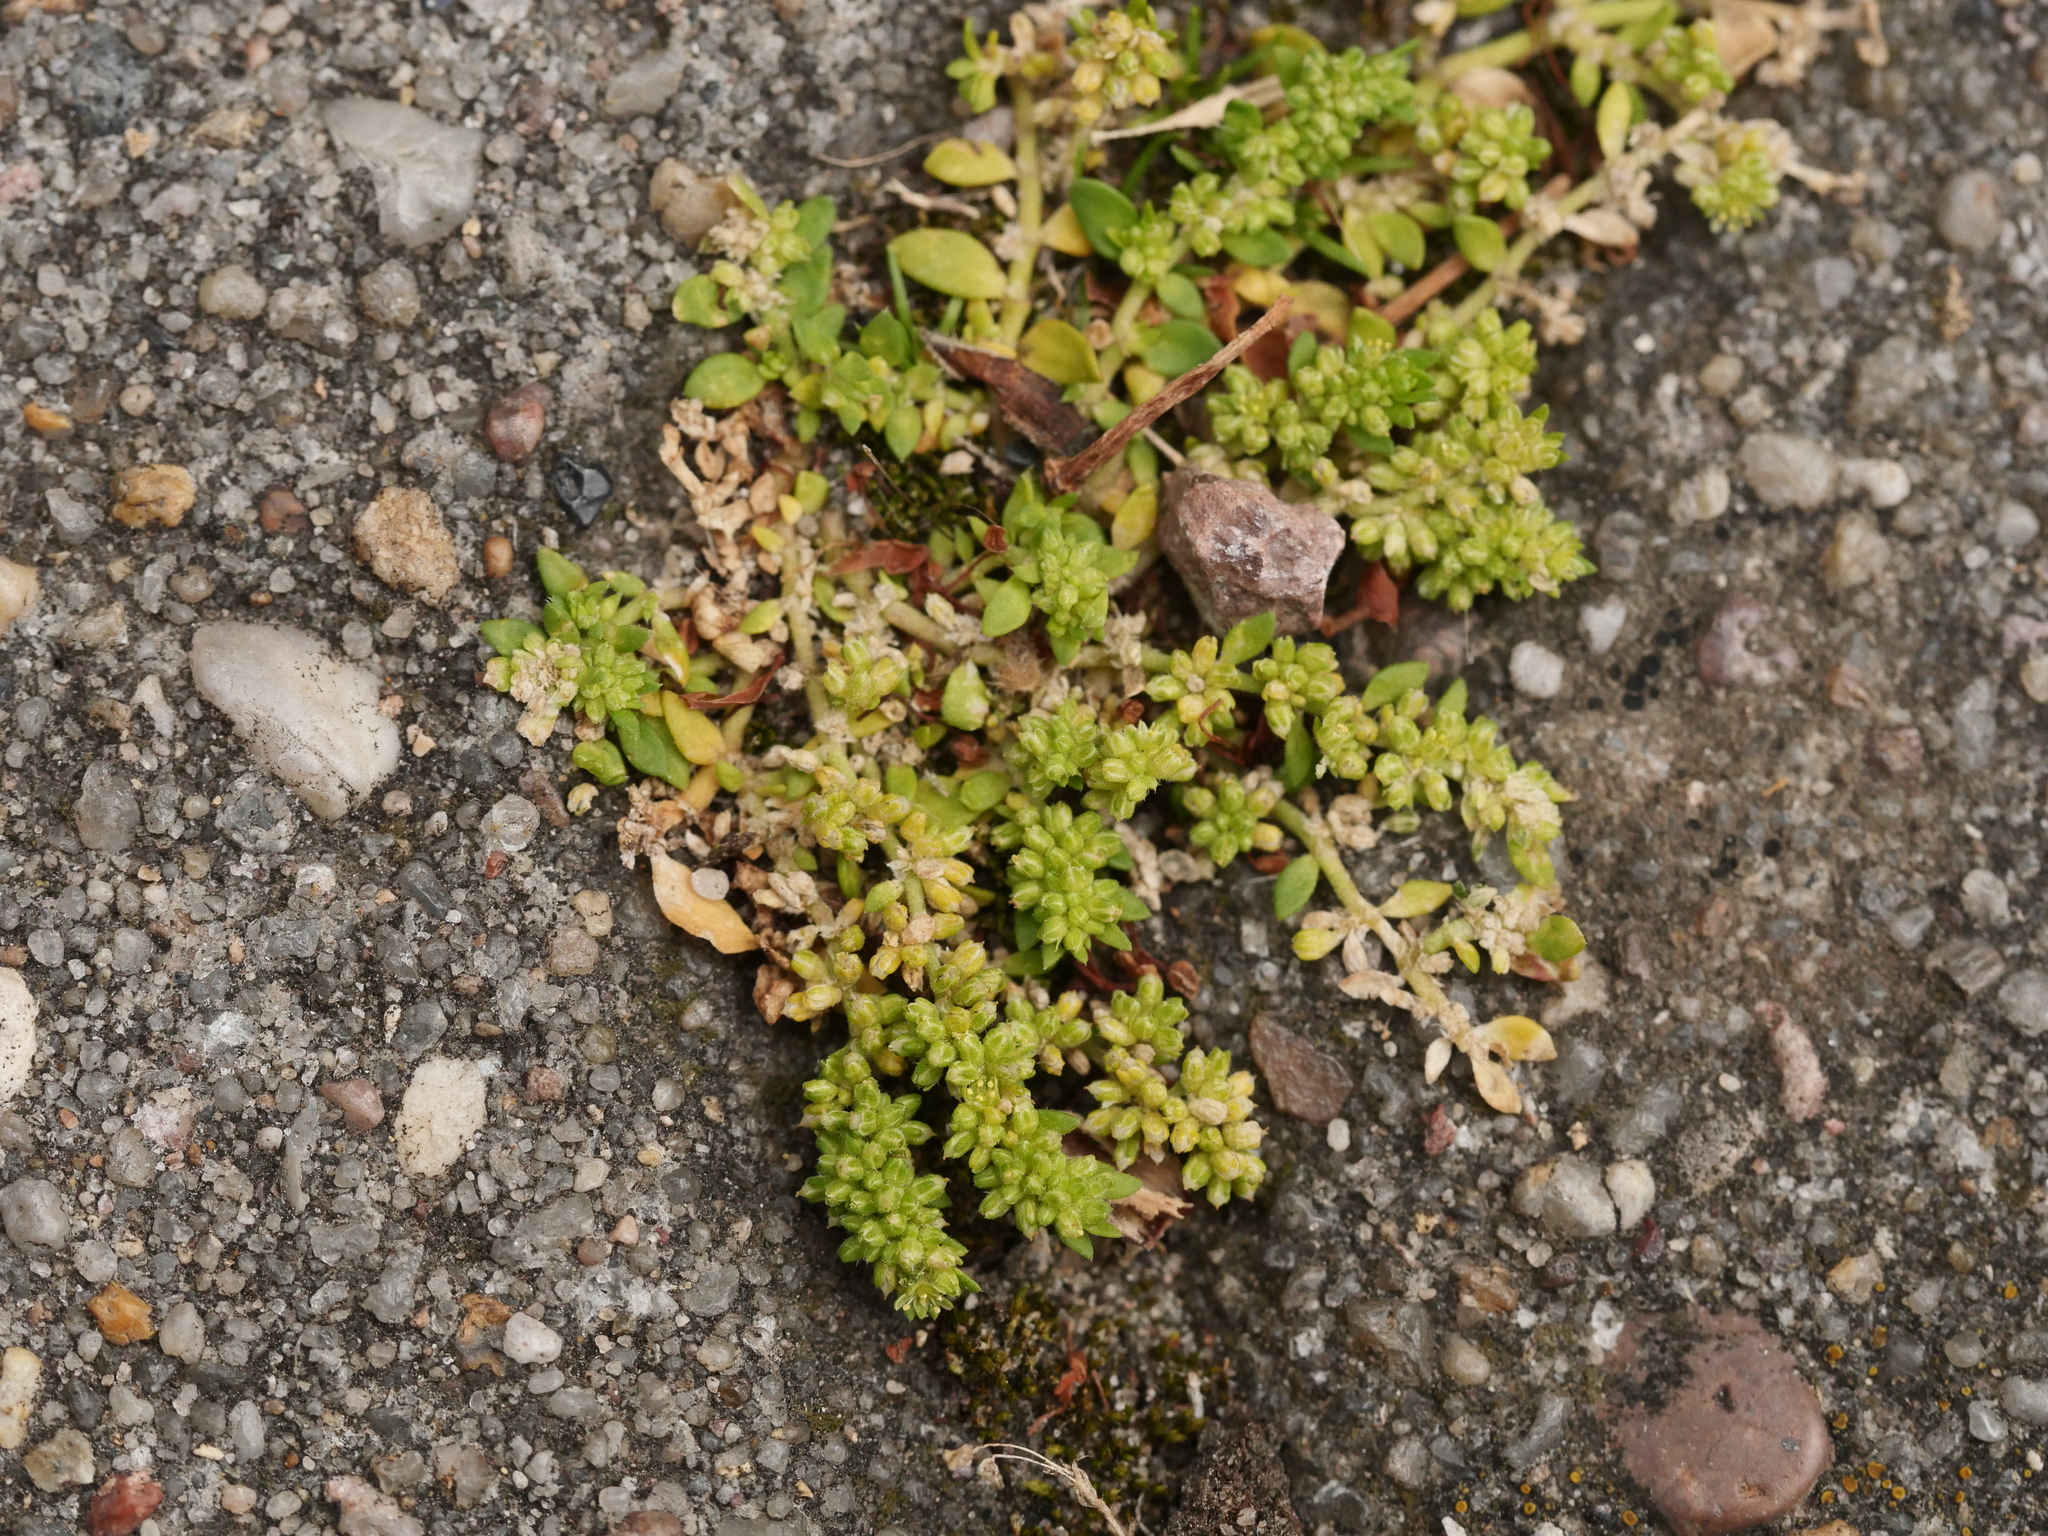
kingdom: Plantae
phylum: Tracheophyta
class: Magnoliopsida
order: Caryophyllales
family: Caryophyllaceae
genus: Herniaria
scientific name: Herniaria glabra
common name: Smooth rupturewort
